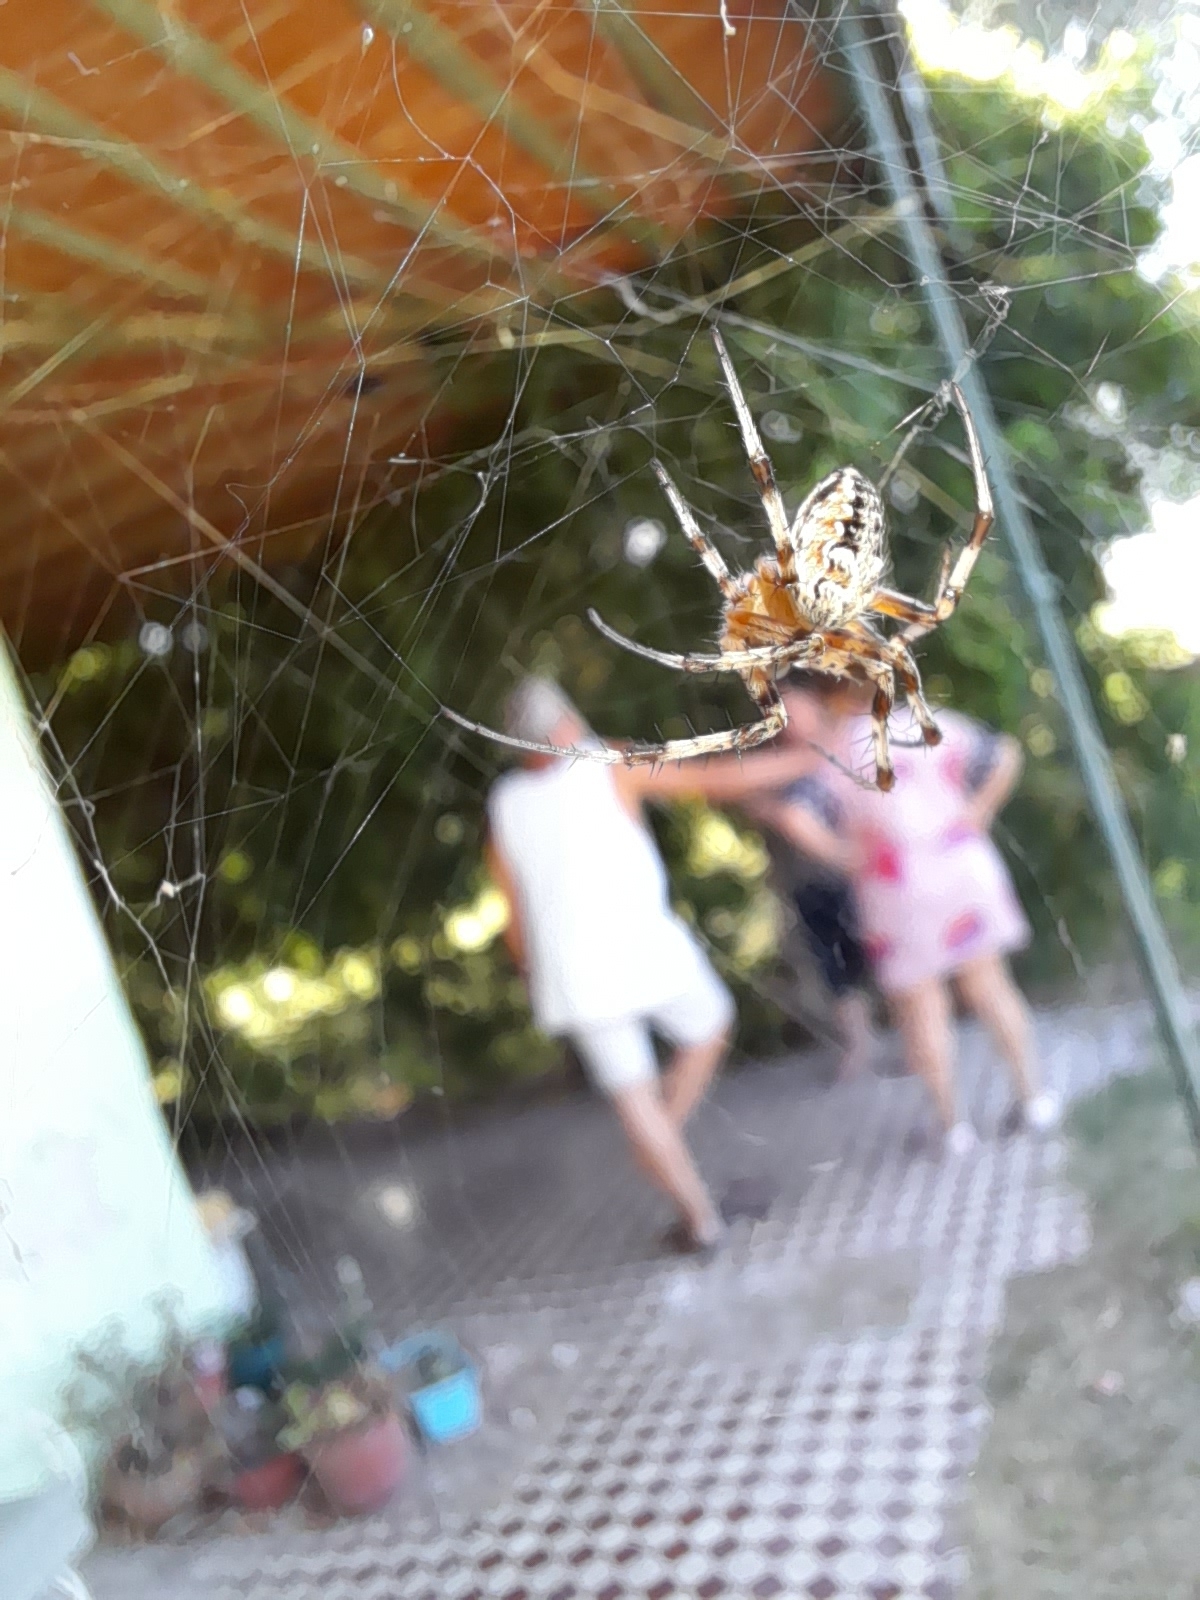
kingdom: Animalia
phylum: Arthropoda
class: Arachnida
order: Araneae
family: Araneidae
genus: Metepeira
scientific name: Metepeira
